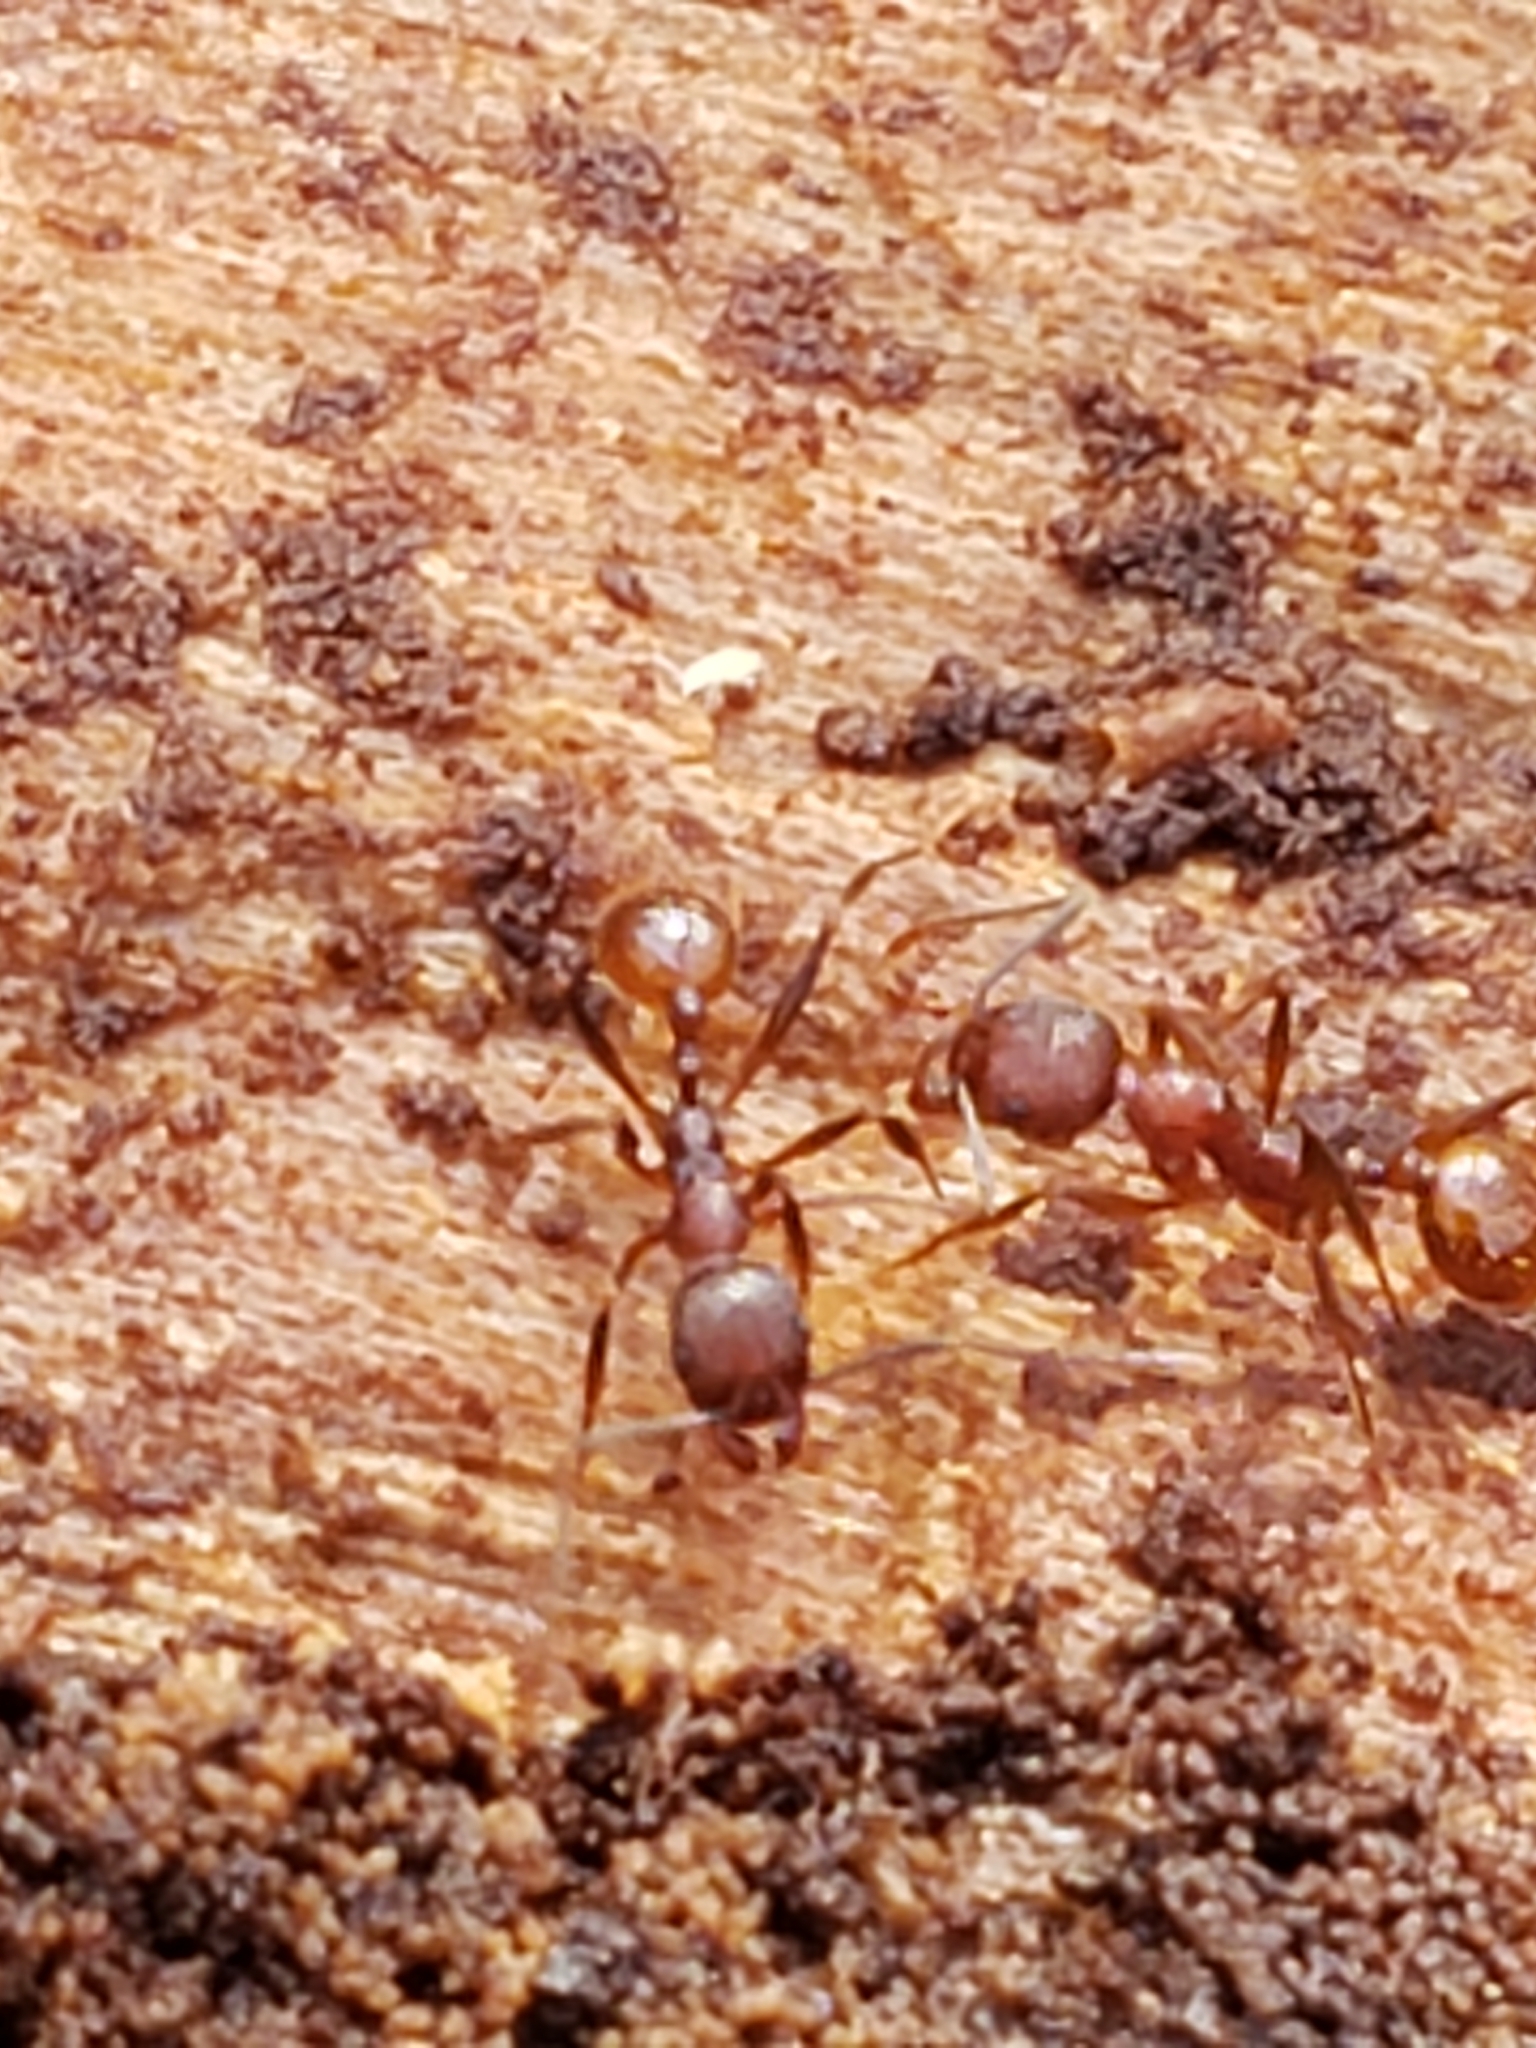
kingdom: Animalia
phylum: Arthropoda
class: Insecta
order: Hymenoptera
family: Formicidae
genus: Aphaenogaster
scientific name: Aphaenogaster fulva
